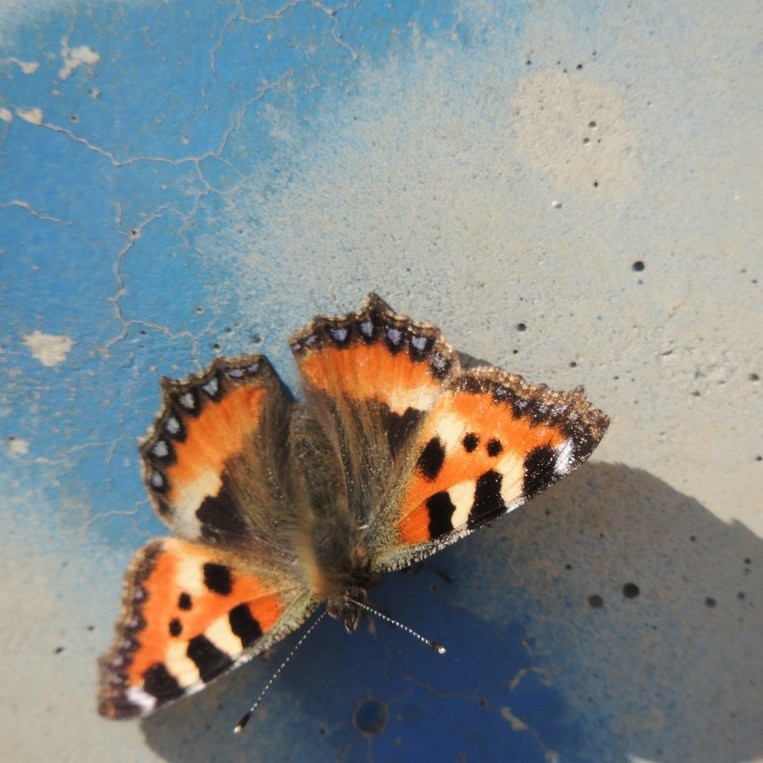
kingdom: Animalia
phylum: Arthropoda
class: Insecta
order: Lepidoptera
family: Nymphalidae
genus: Aglais
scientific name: Aglais urticae
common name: Small tortoiseshell
